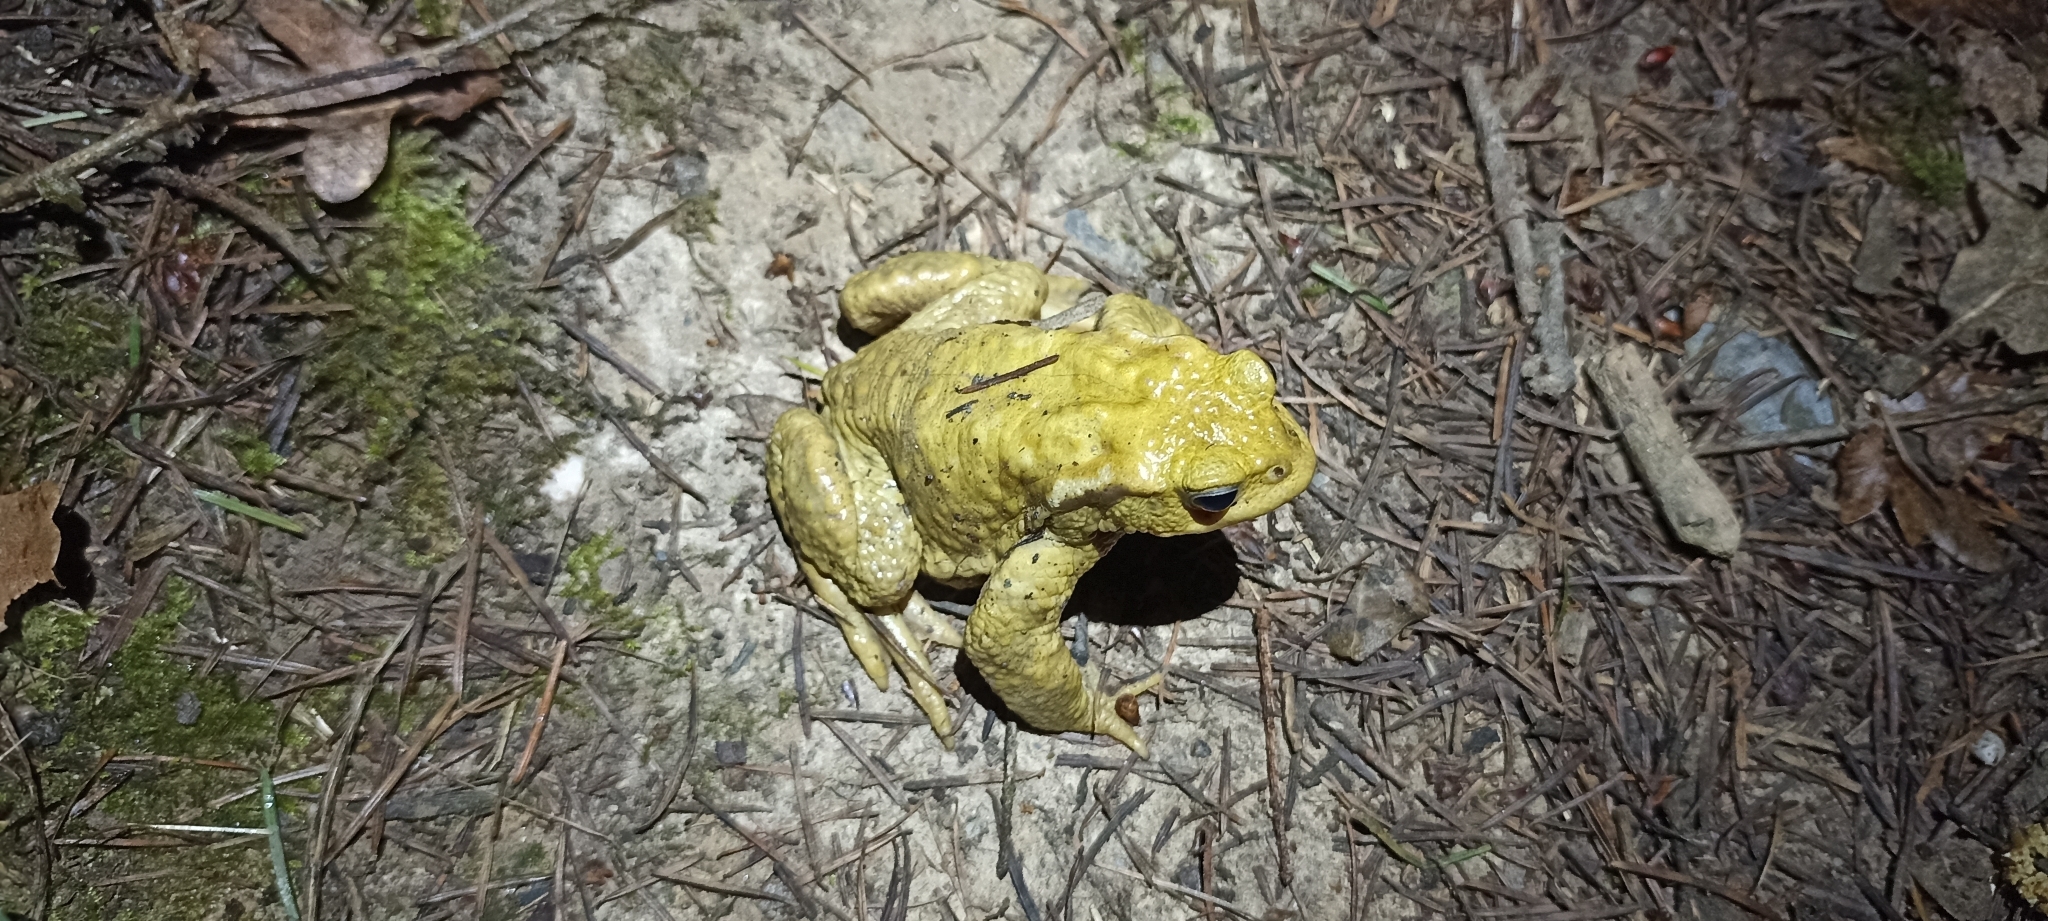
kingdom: Animalia
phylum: Chordata
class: Amphibia
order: Anura
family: Bufonidae
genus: Bufo
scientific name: Bufo spinosus
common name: Western common toad
